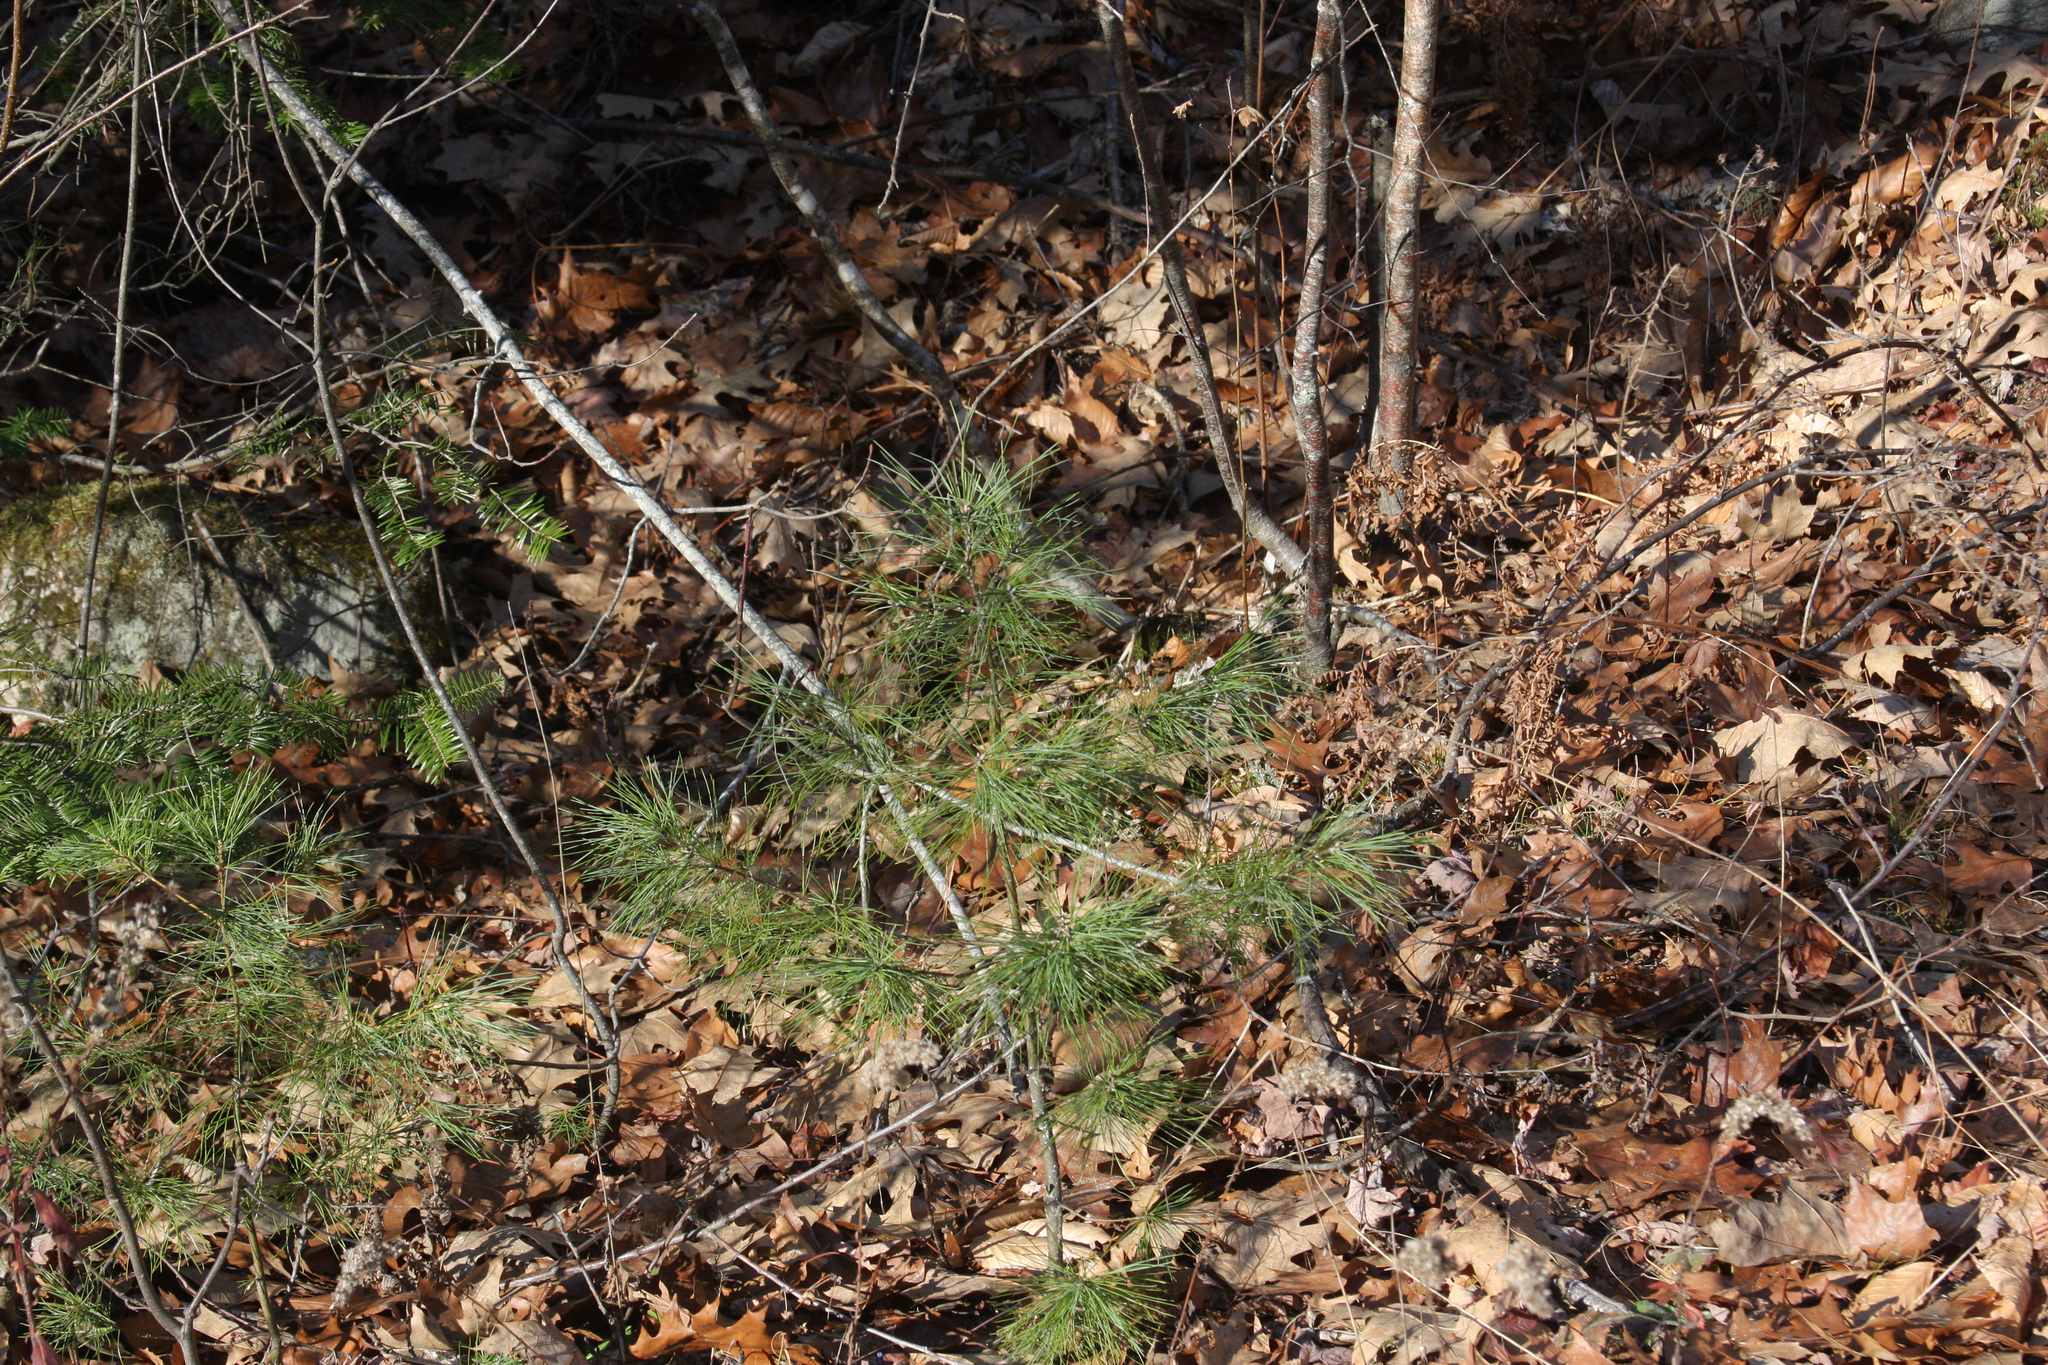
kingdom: Plantae
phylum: Tracheophyta
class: Pinopsida
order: Pinales
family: Pinaceae
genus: Pinus
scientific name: Pinus strobus
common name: Weymouth pine
